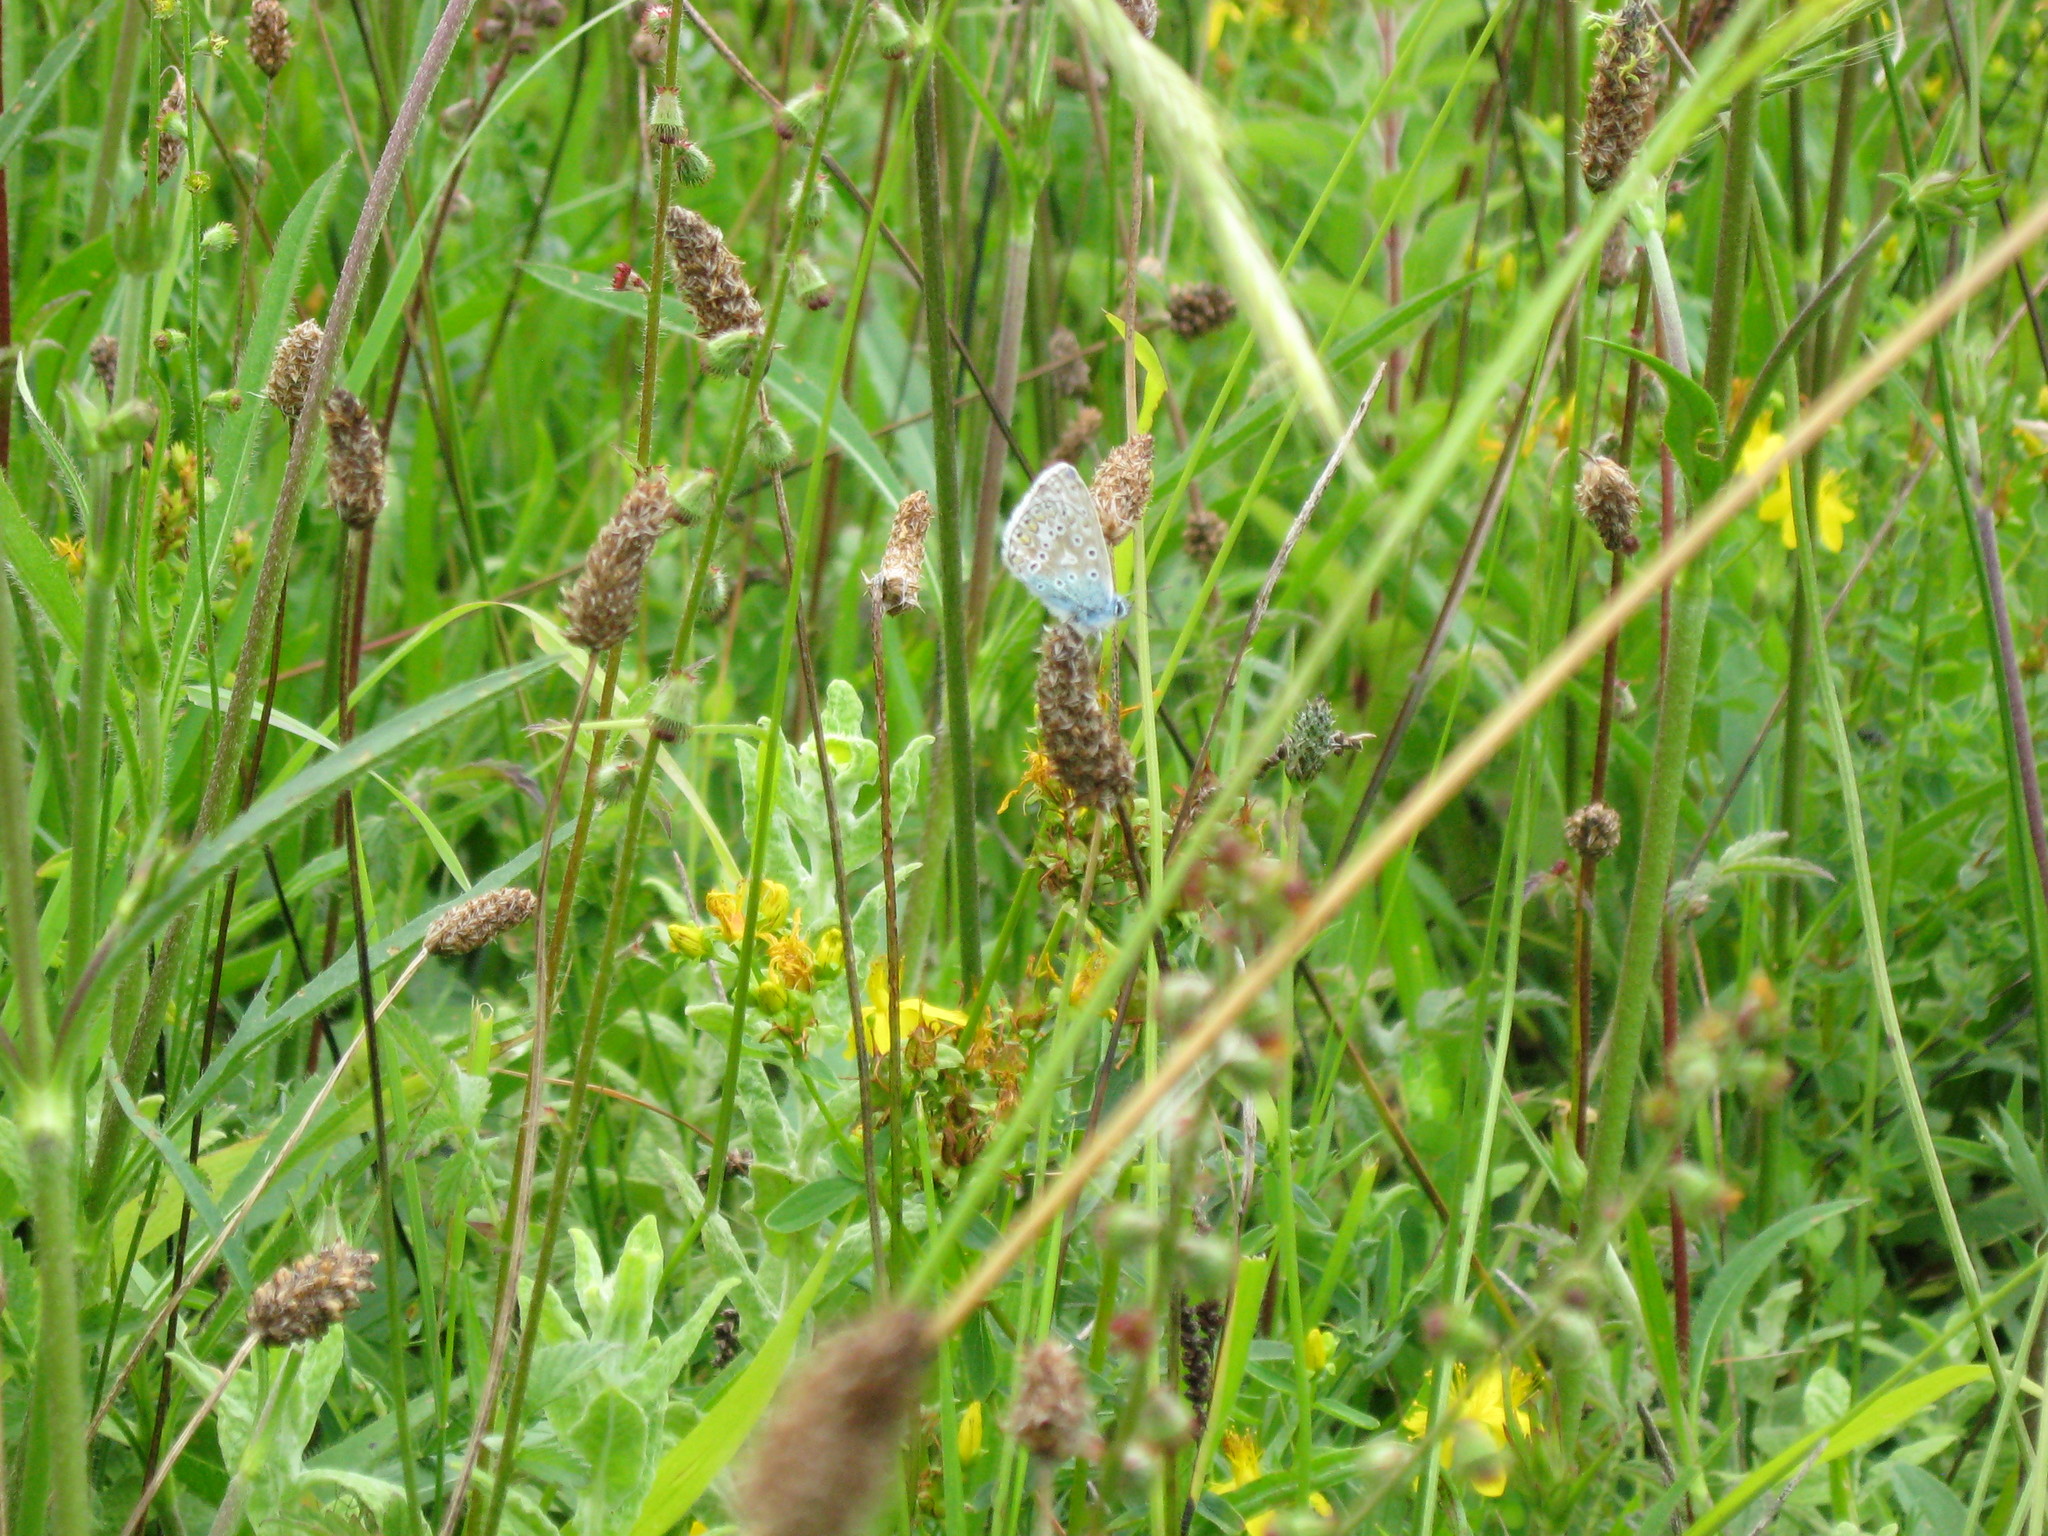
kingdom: Animalia
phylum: Arthropoda
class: Insecta
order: Lepidoptera
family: Lycaenidae
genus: Polyommatus
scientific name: Polyommatus icarus
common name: Common blue
